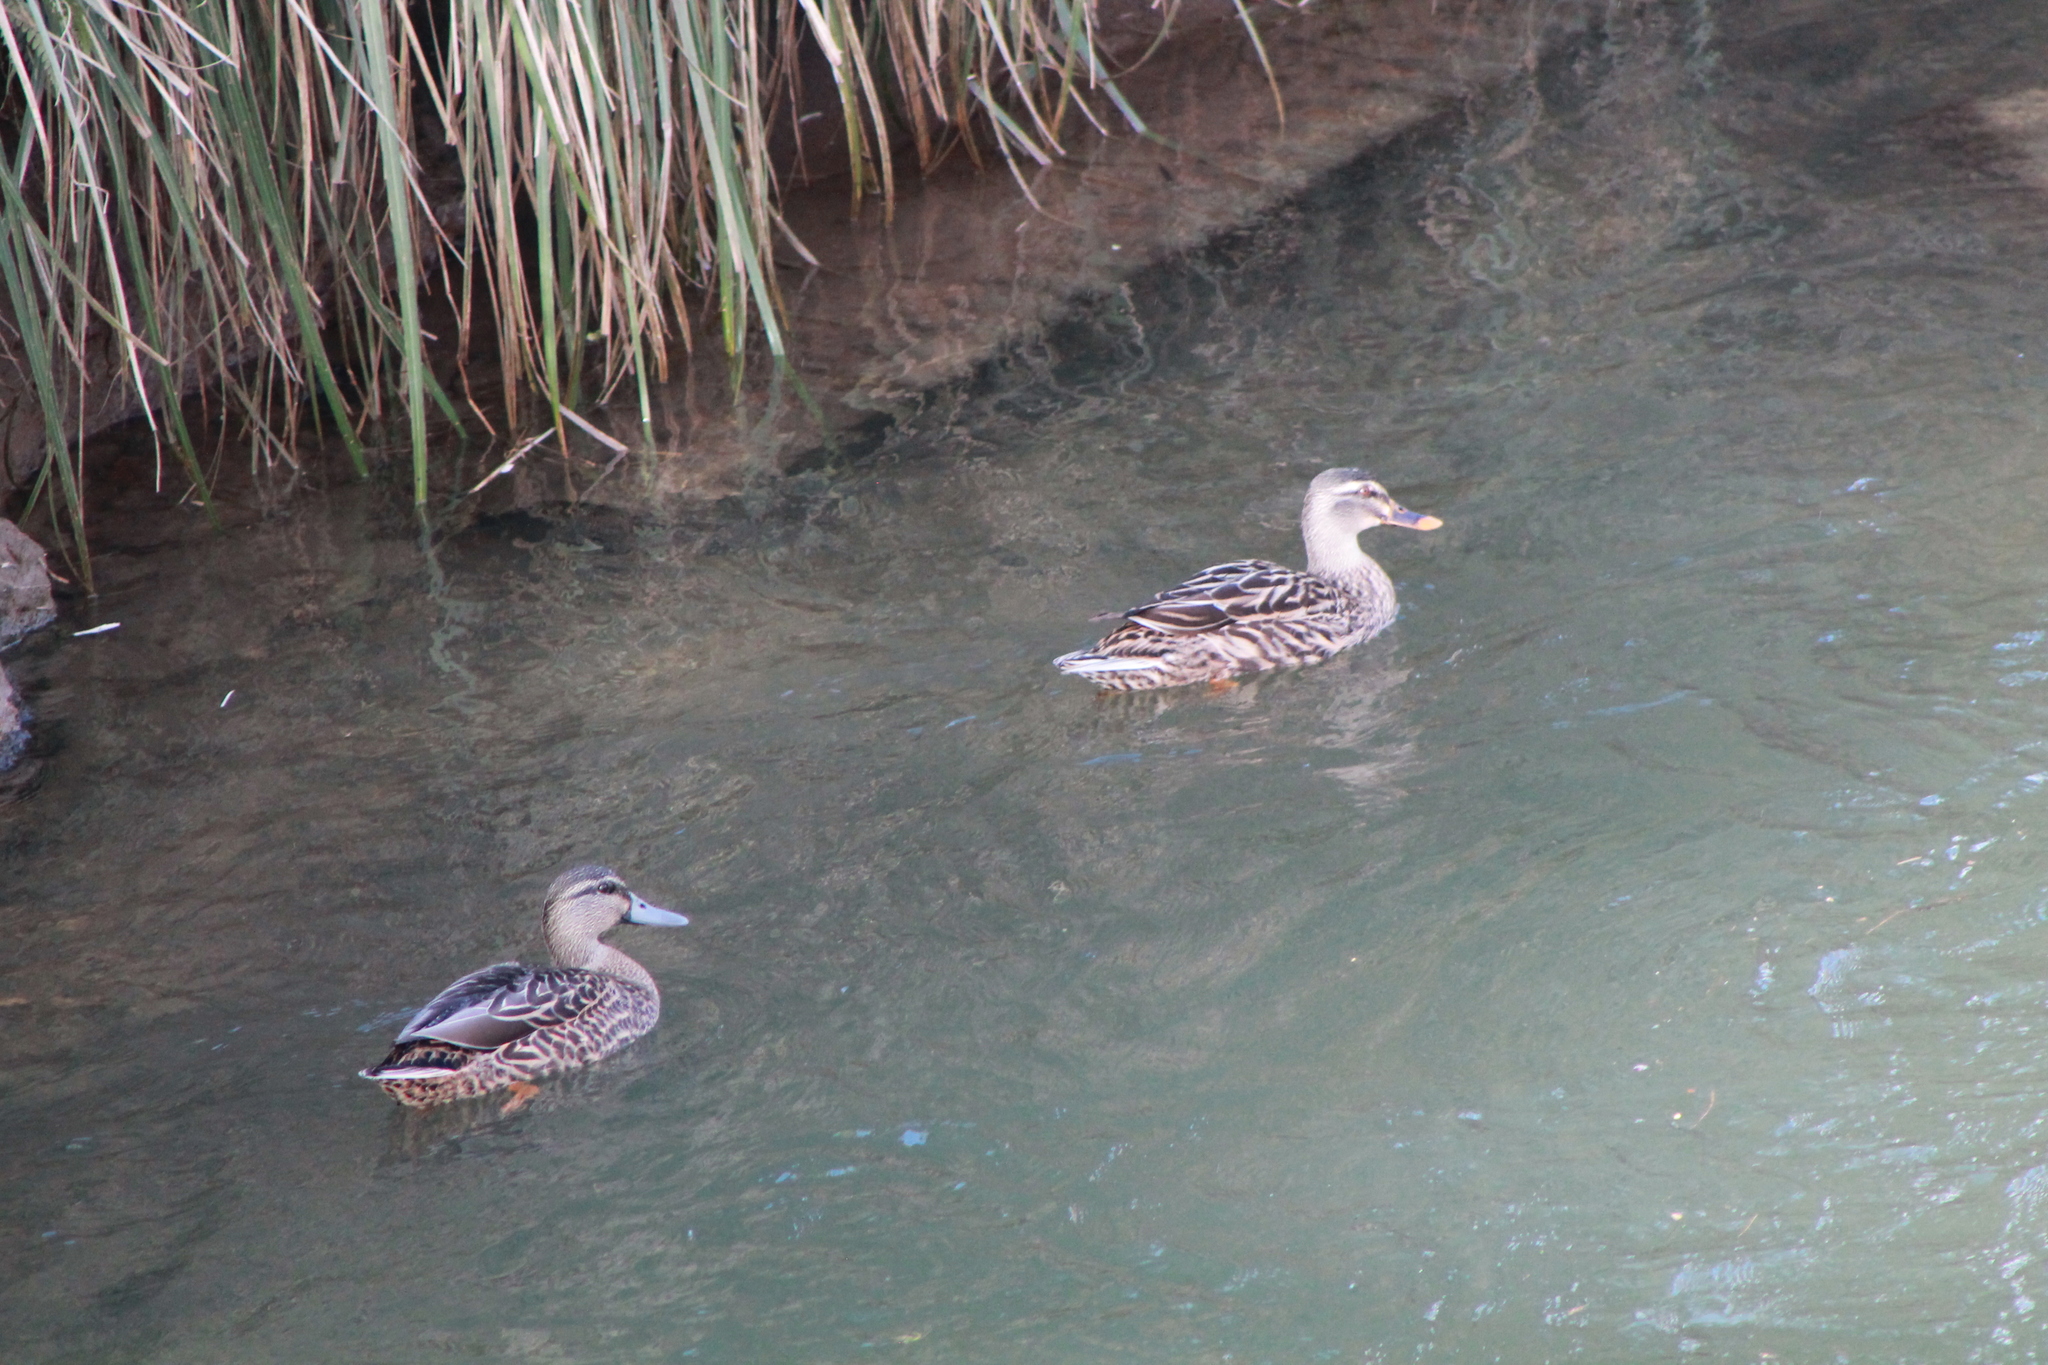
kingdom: Animalia
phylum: Chordata
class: Aves
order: Anseriformes
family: Anatidae
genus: Anas
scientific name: Anas platyrhynchos
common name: Mallard
